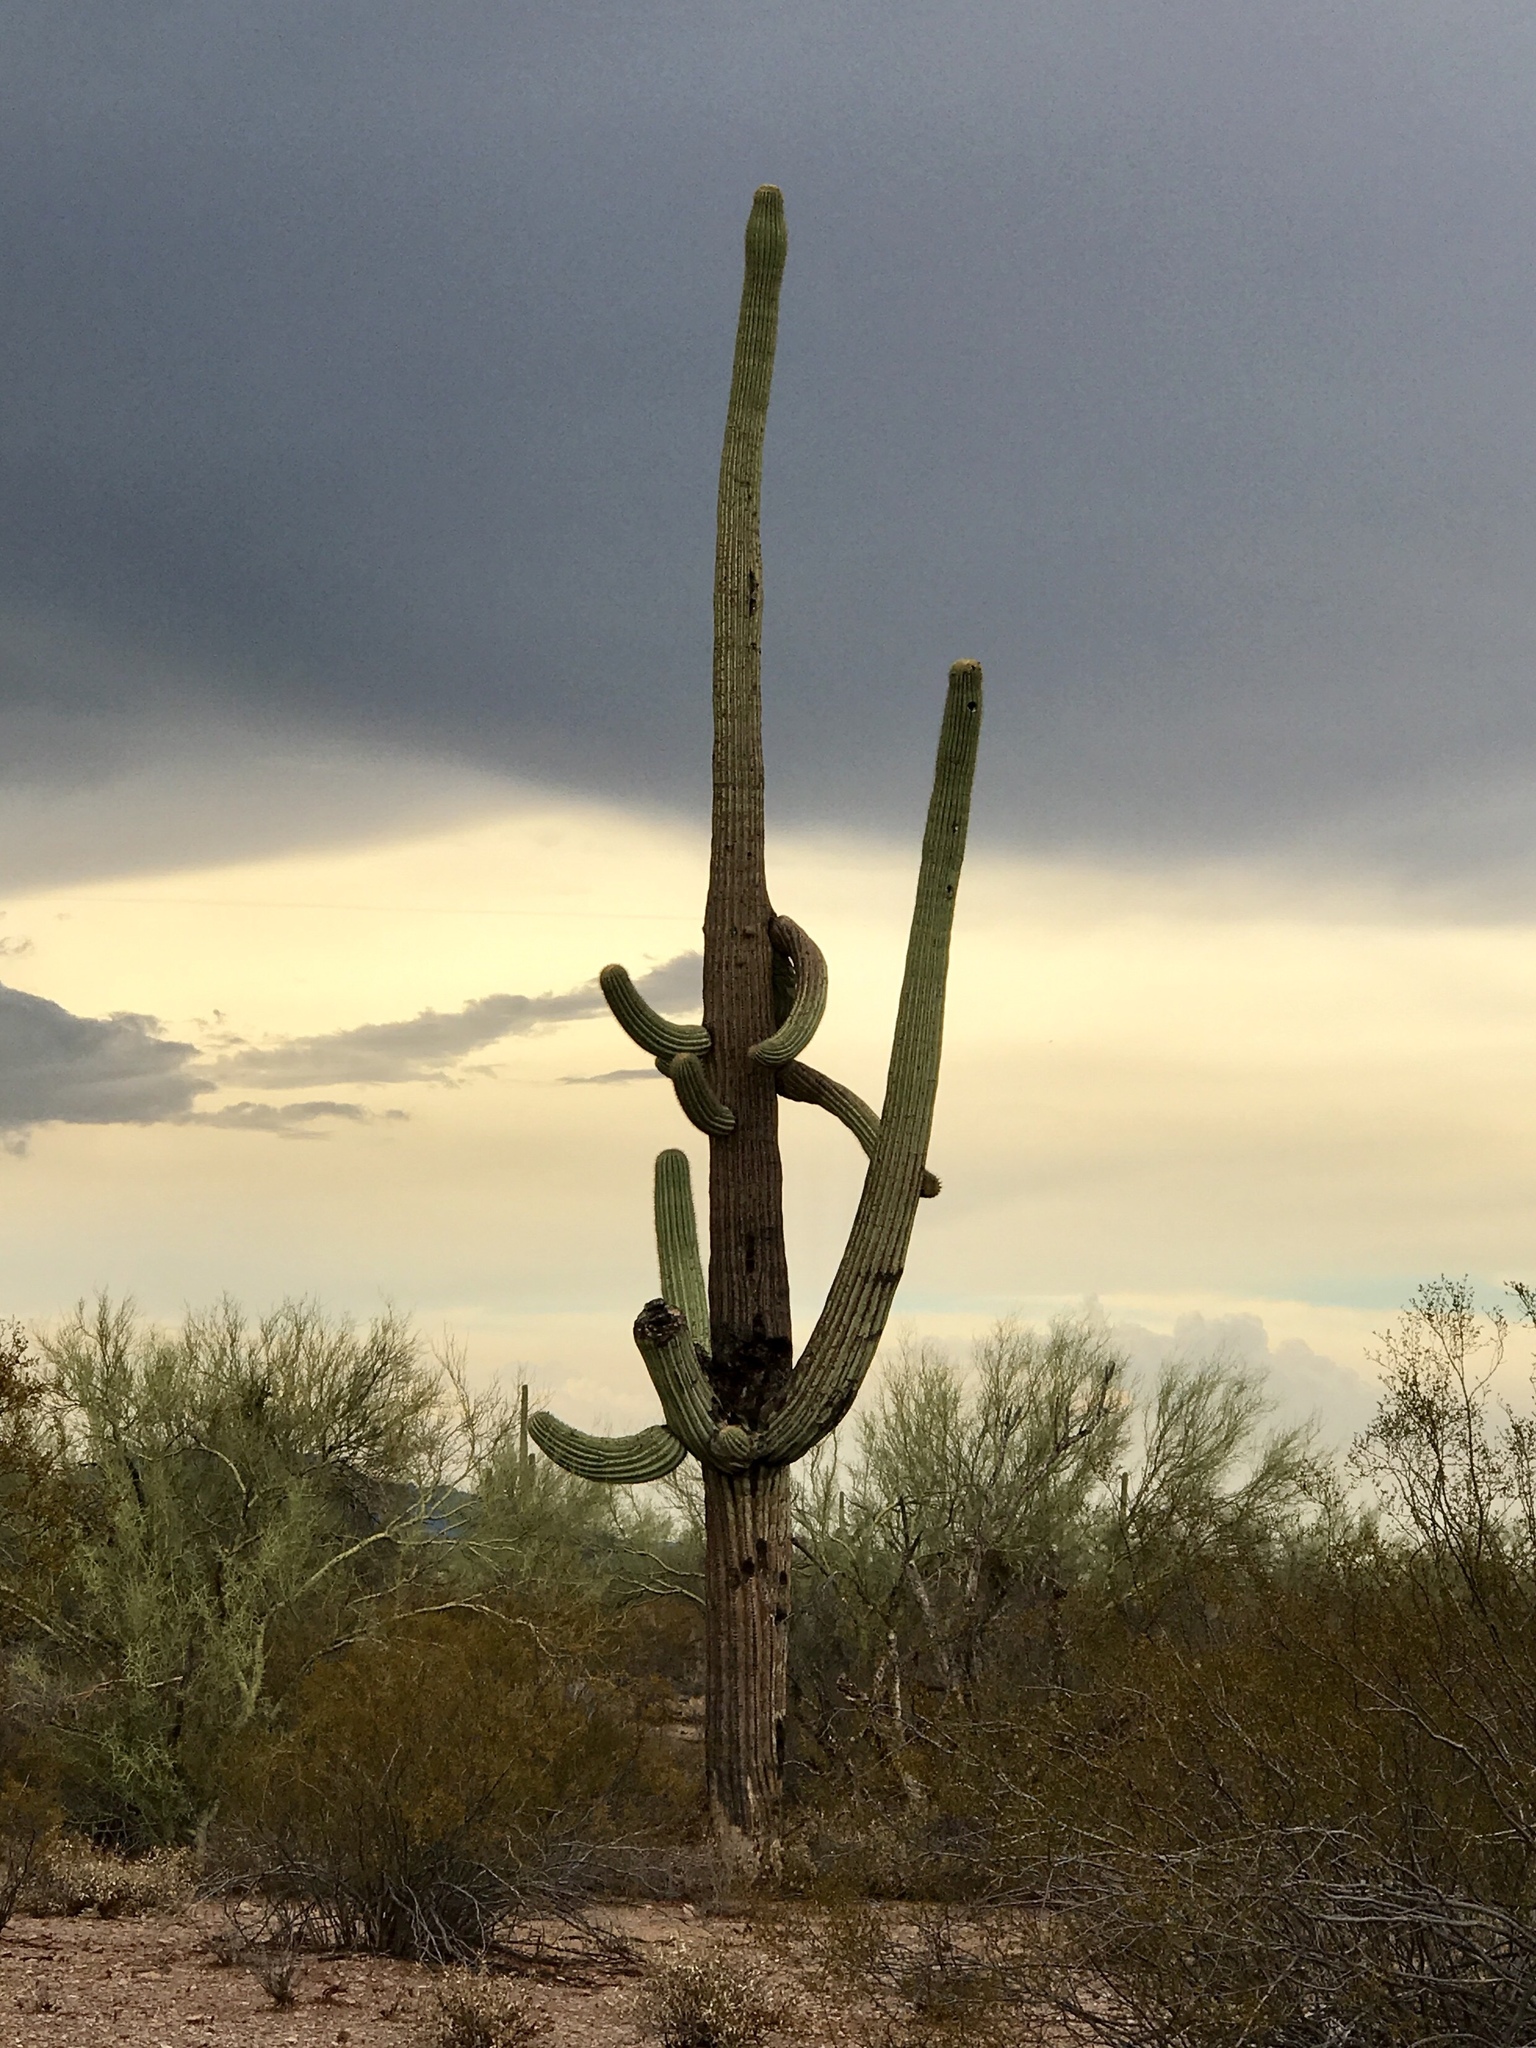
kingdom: Plantae
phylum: Tracheophyta
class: Magnoliopsida
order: Caryophyllales
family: Cactaceae
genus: Carnegiea
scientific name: Carnegiea gigantea
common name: Saguaro
